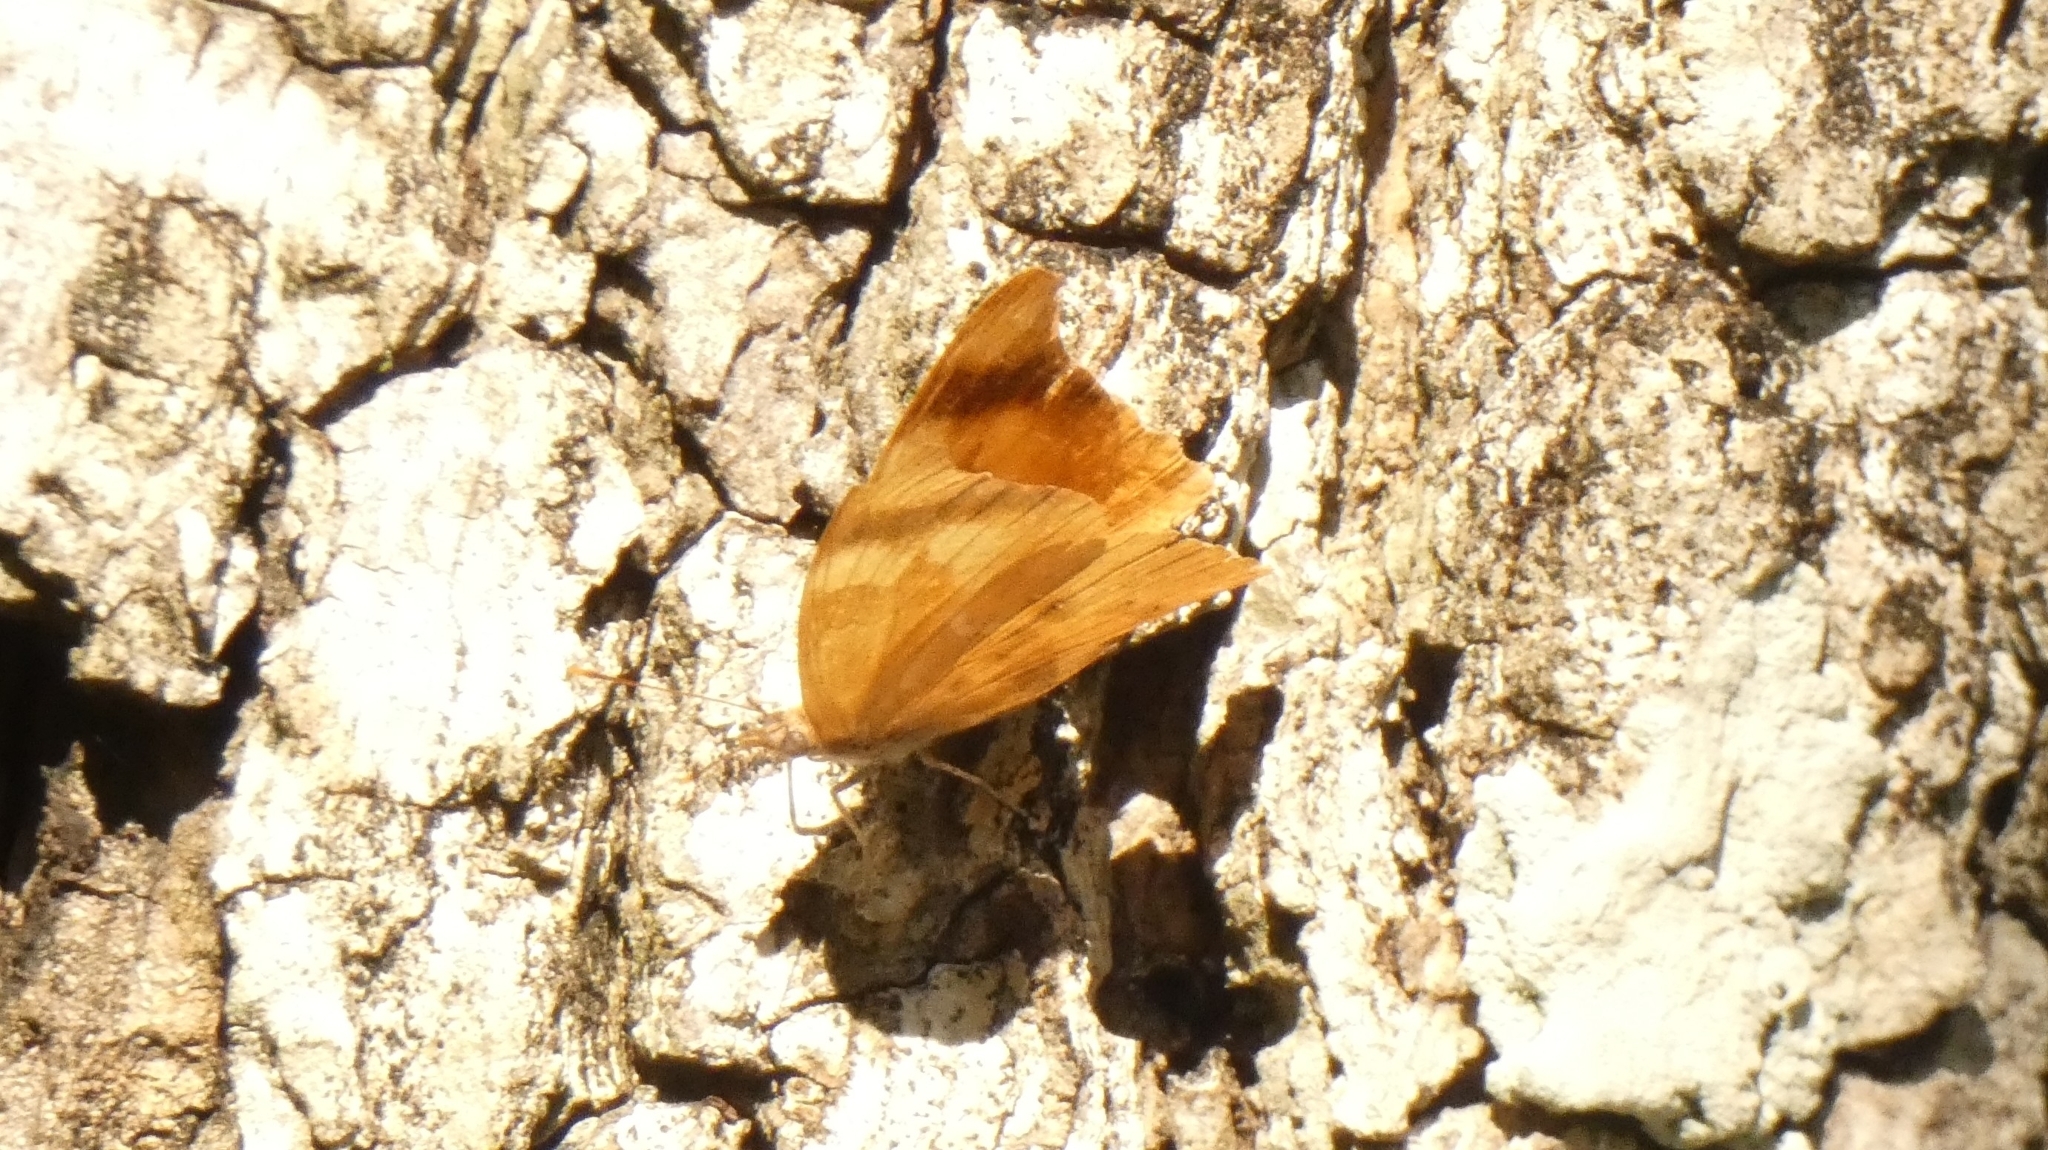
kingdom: Animalia
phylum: Arthropoda
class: Insecta
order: Lepidoptera
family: Nymphalidae
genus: Temenis
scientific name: Temenis laothoe
